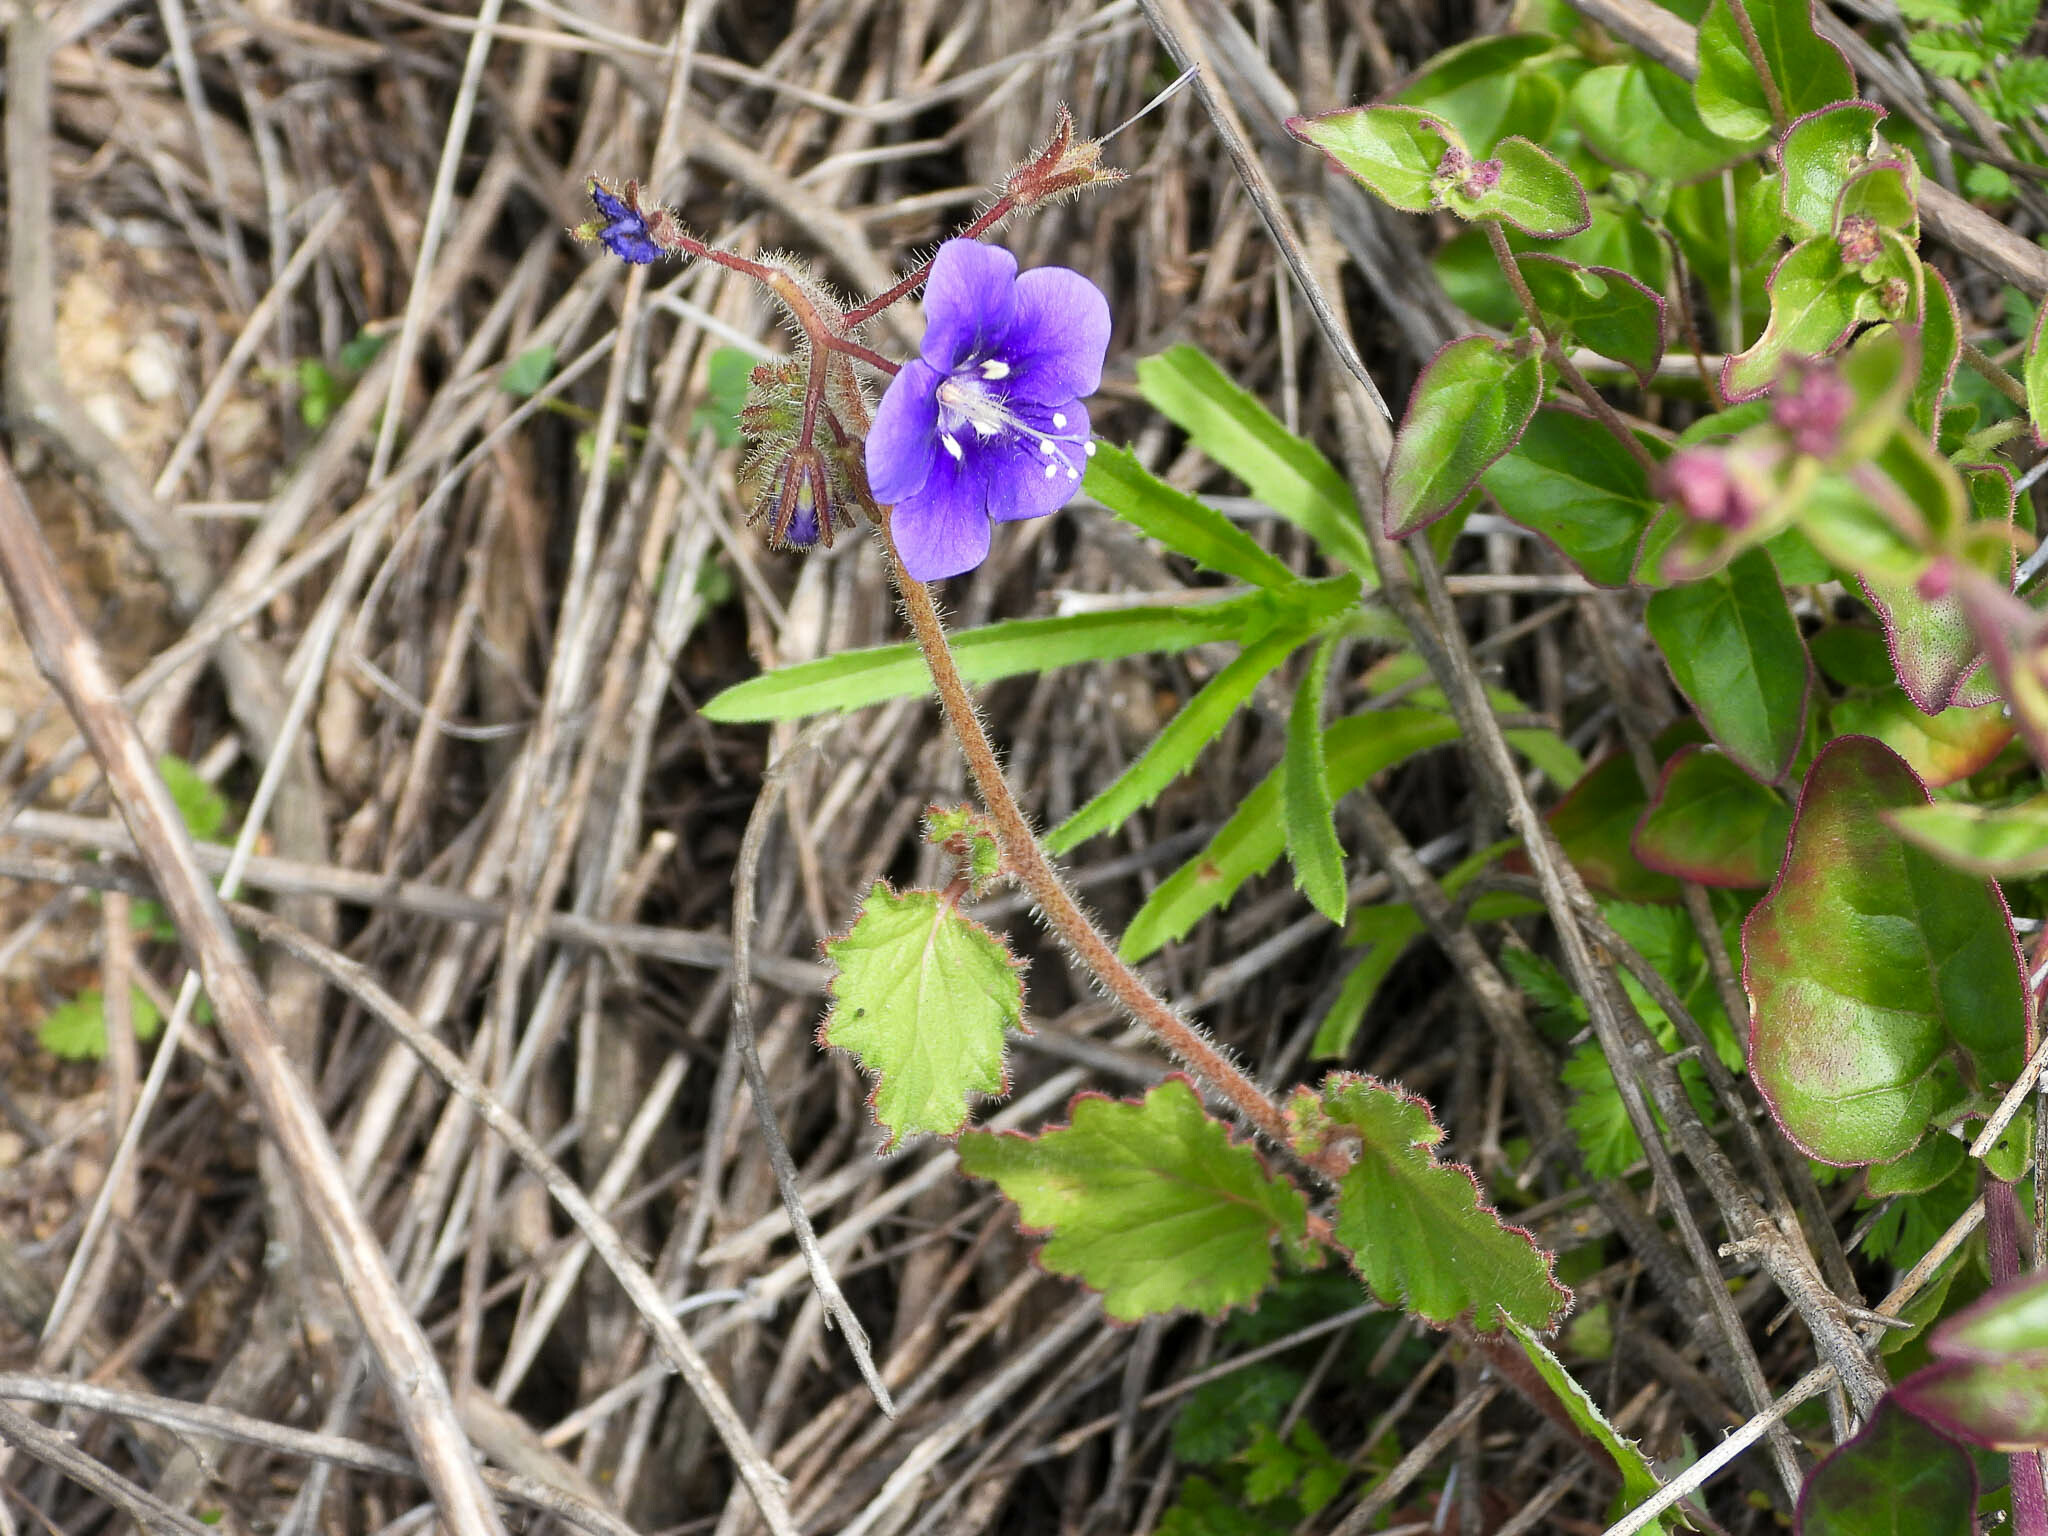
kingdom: Plantae
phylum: Tracheophyta
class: Magnoliopsida
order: Boraginales
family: Hydrophyllaceae
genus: Phacelia
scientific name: Phacelia parryi
